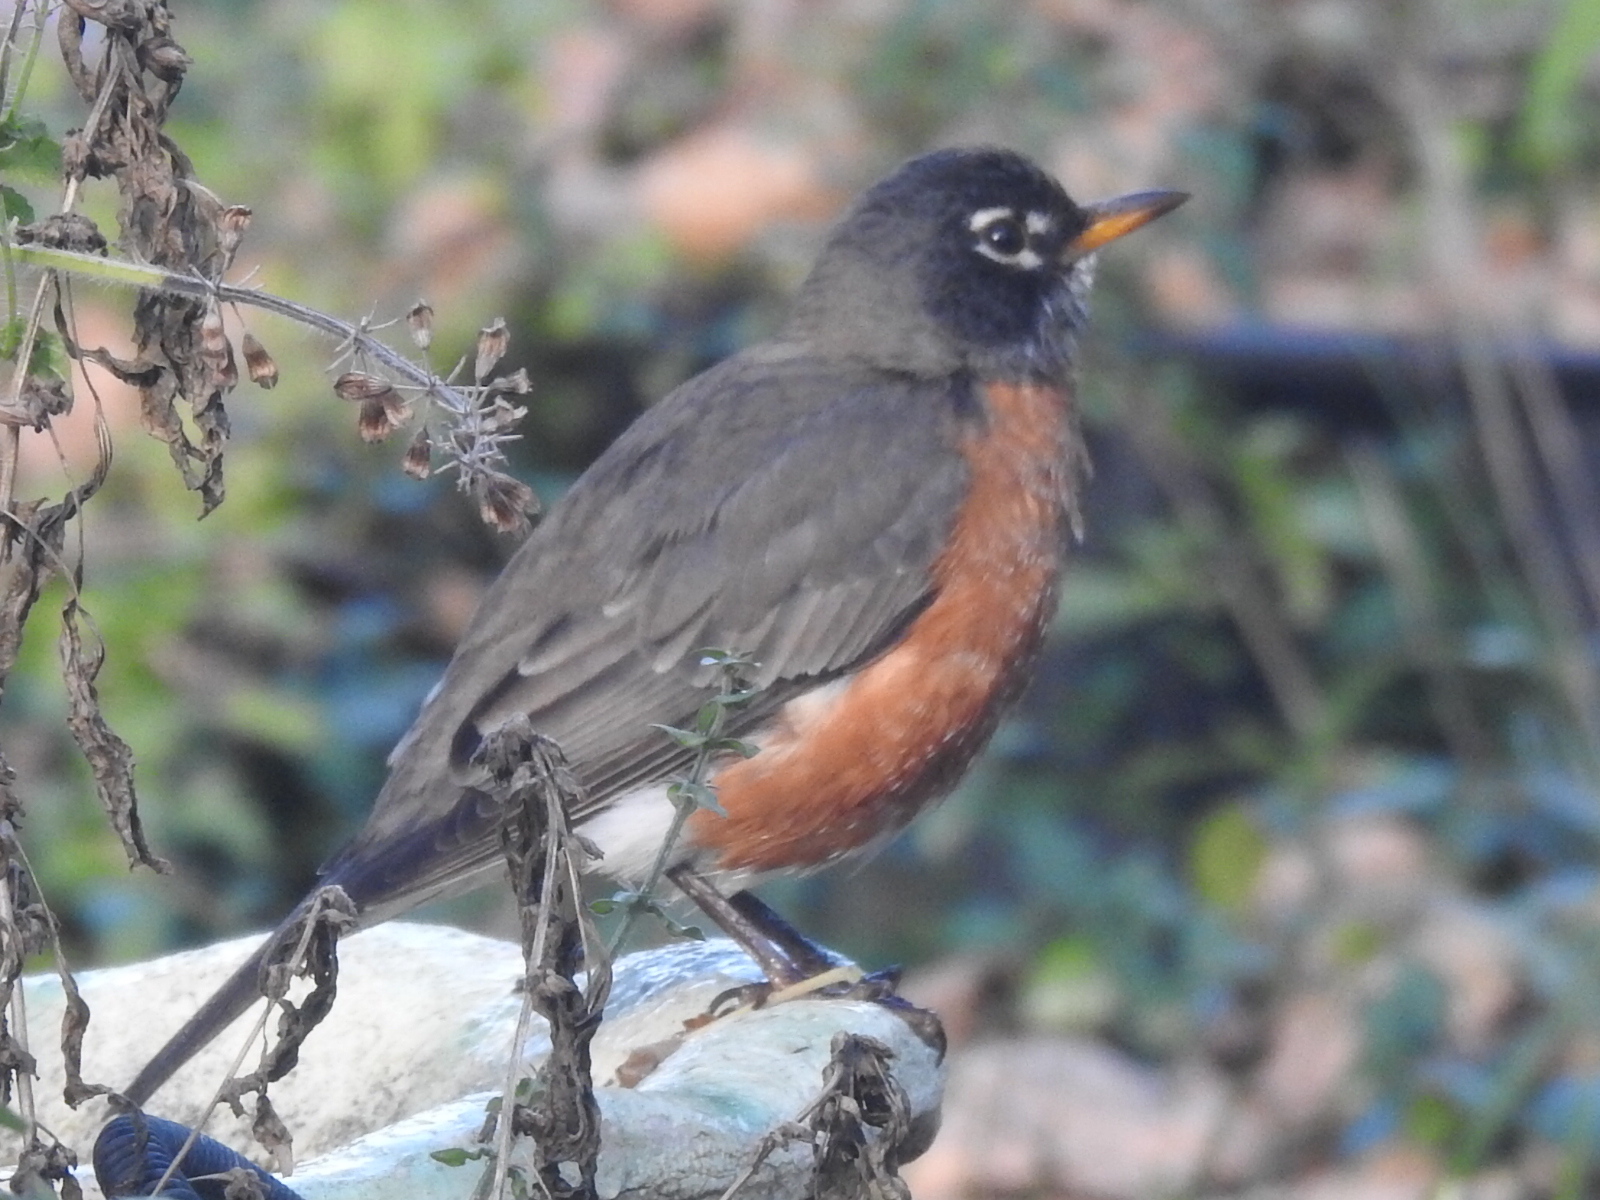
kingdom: Animalia
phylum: Chordata
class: Aves
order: Passeriformes
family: Turdidae
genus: Turdus
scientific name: Turdus migratorius
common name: American robin
